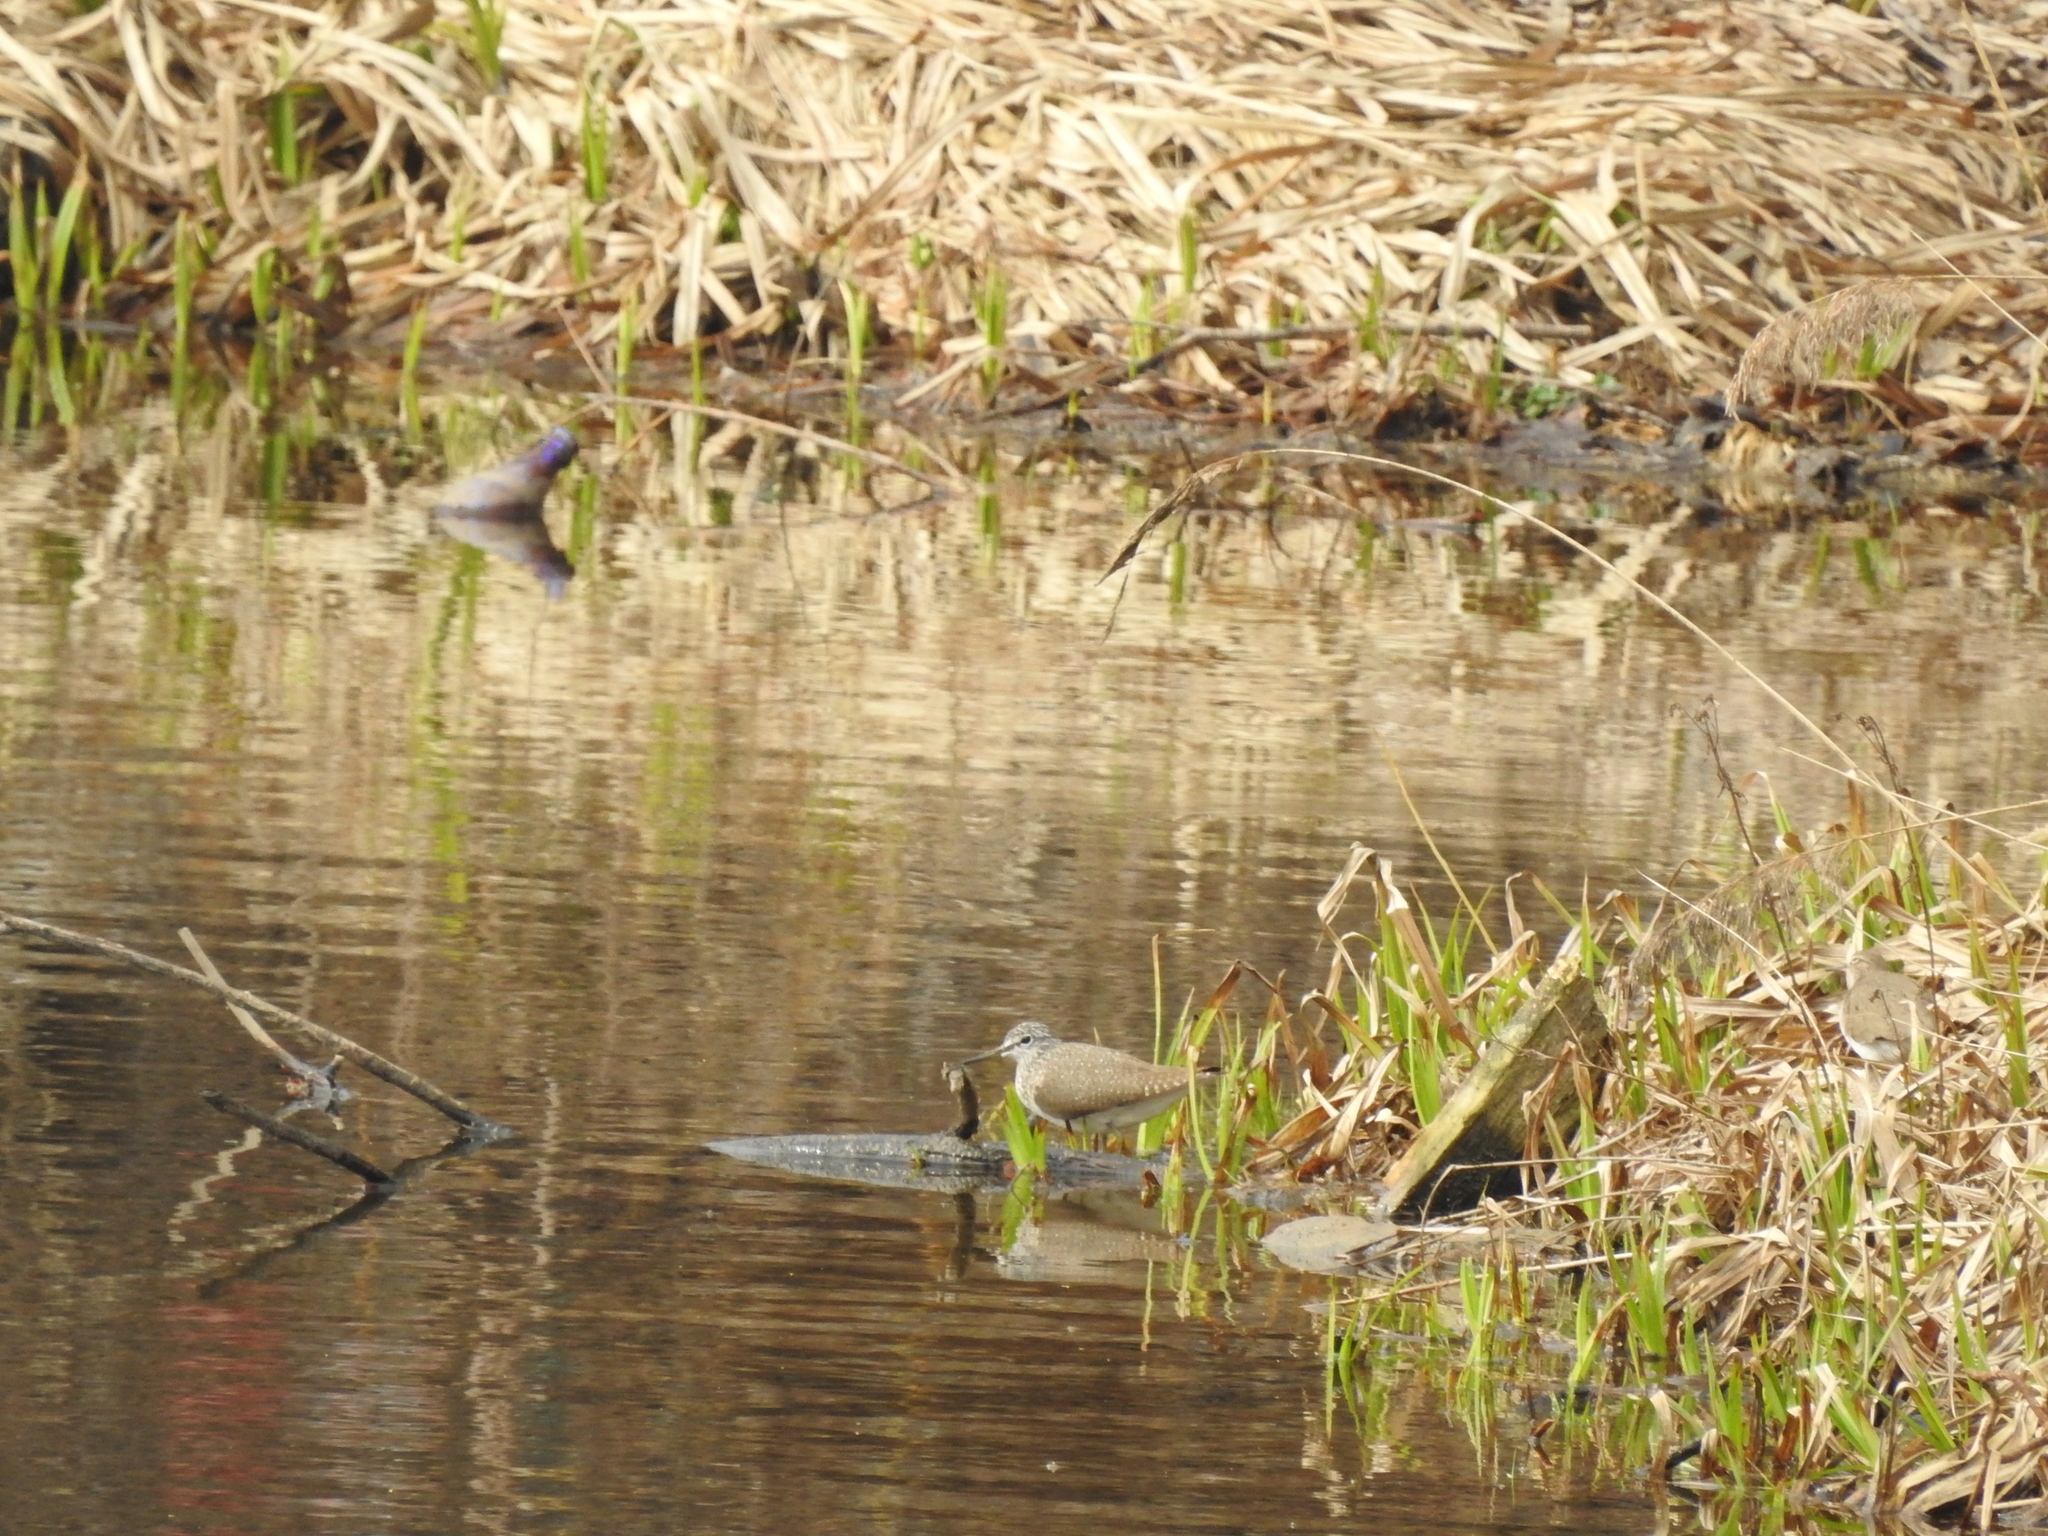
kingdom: Animalia
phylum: Chordata
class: Aves
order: Charadriiformes
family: Scolopacidae
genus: Tringa
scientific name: Tringa ochropus
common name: Green sandpiper
